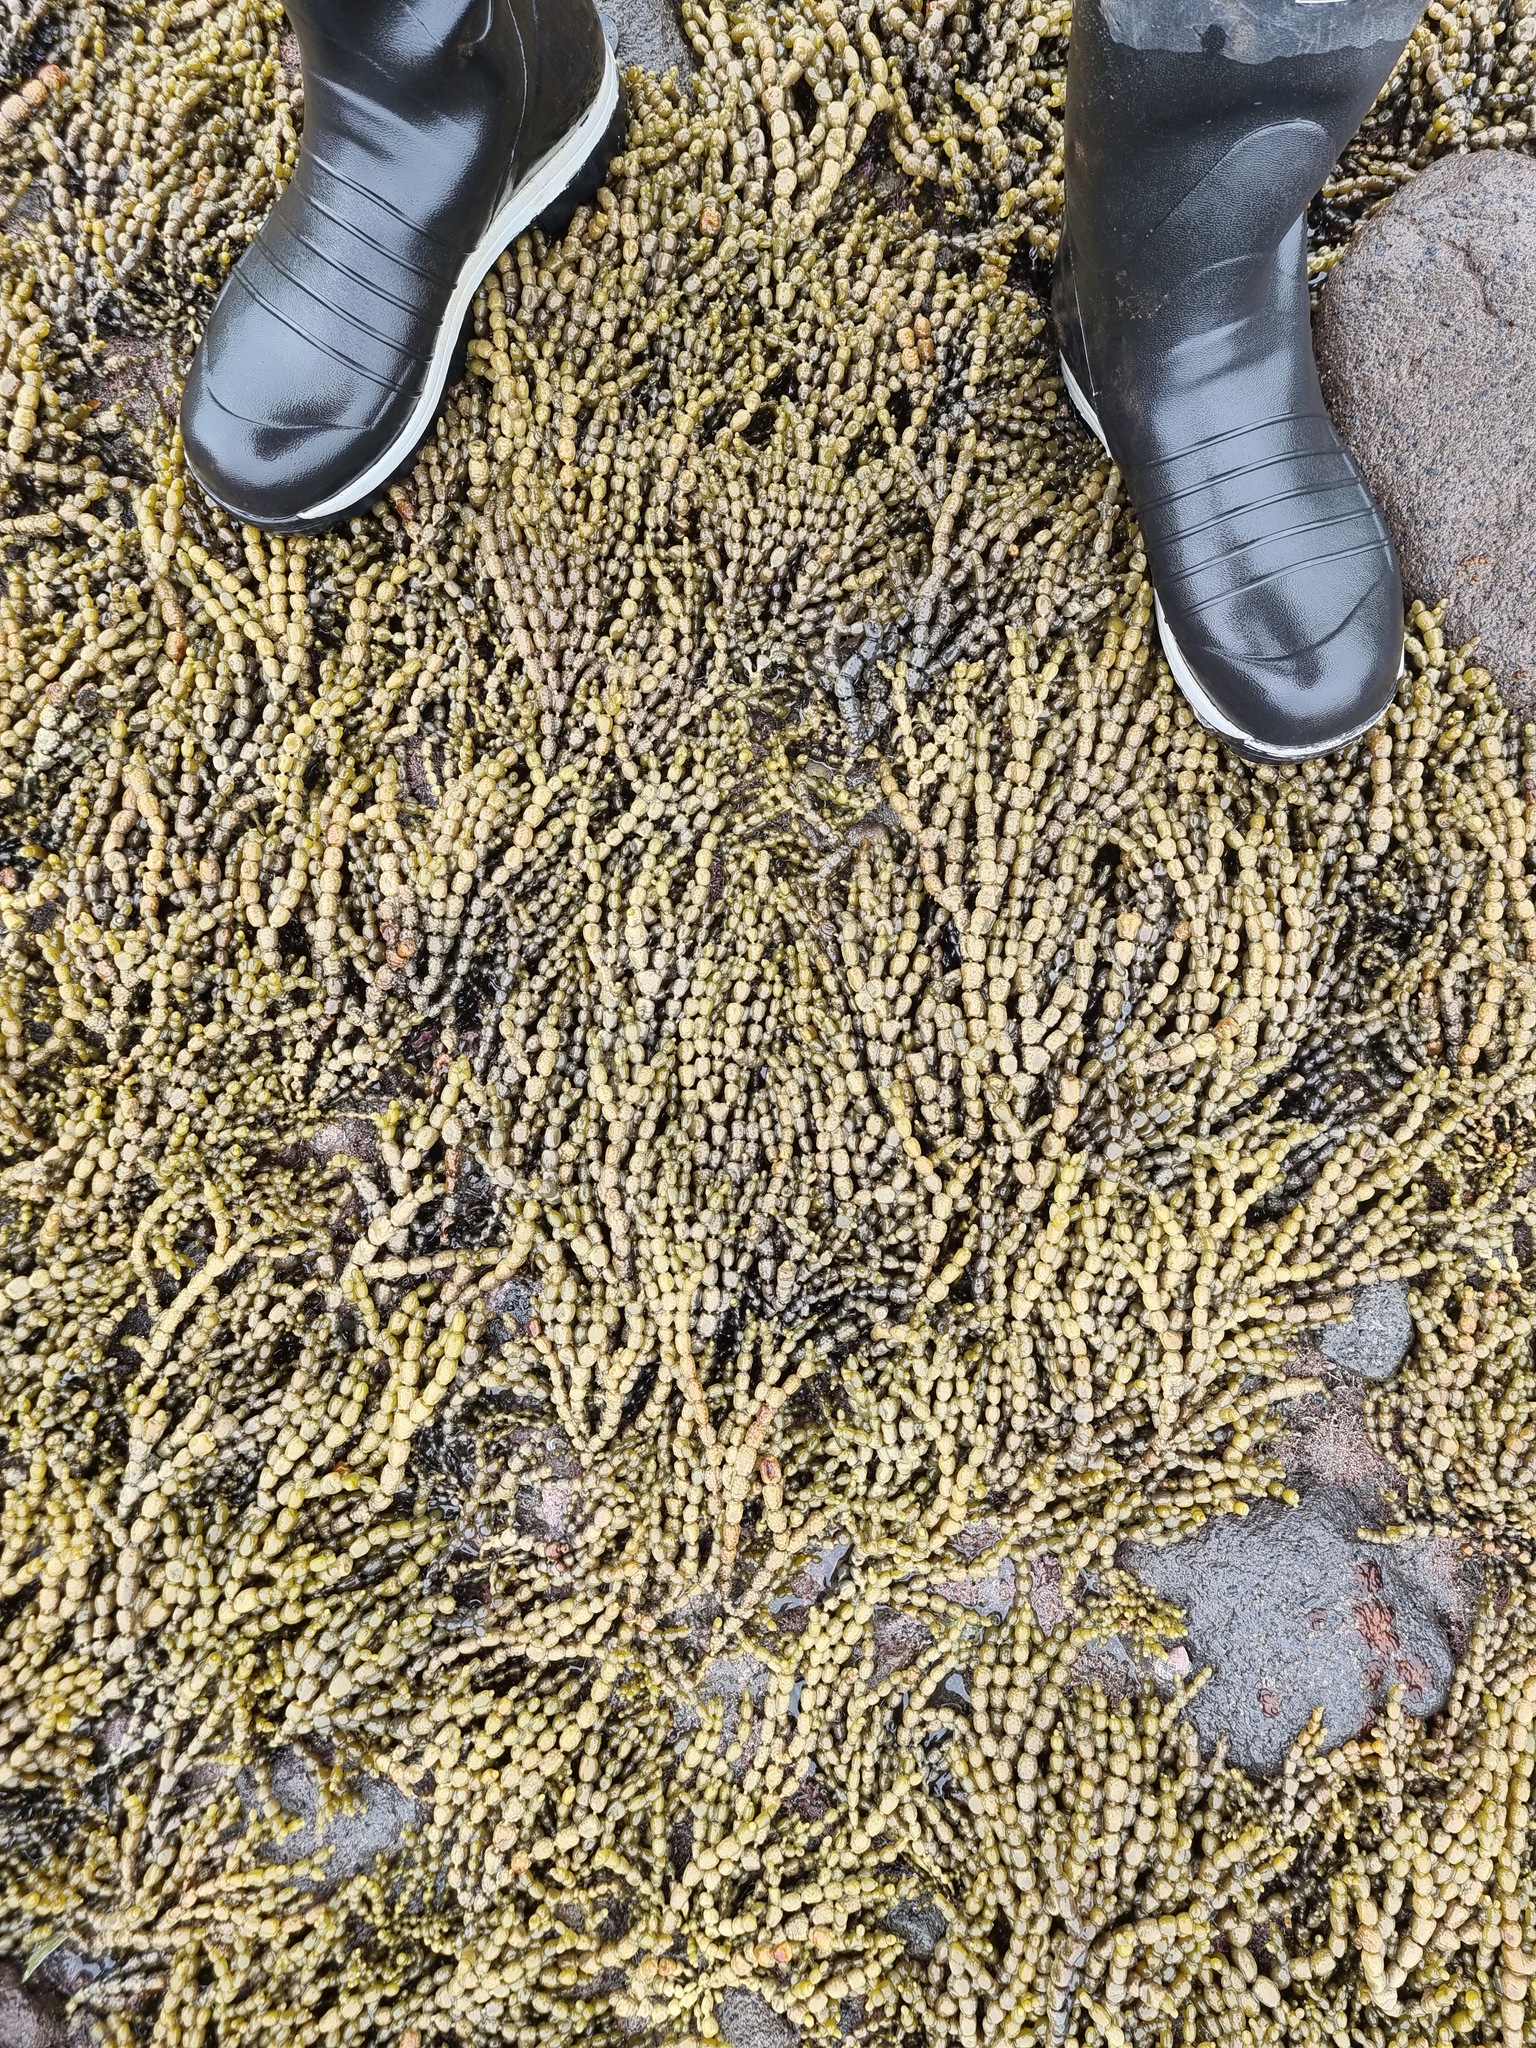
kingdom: Chromista
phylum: Ochrophyta
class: Phaeophyceae
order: Fucales
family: Hormosiraceae
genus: Hormosira
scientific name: Hormosira banksii
